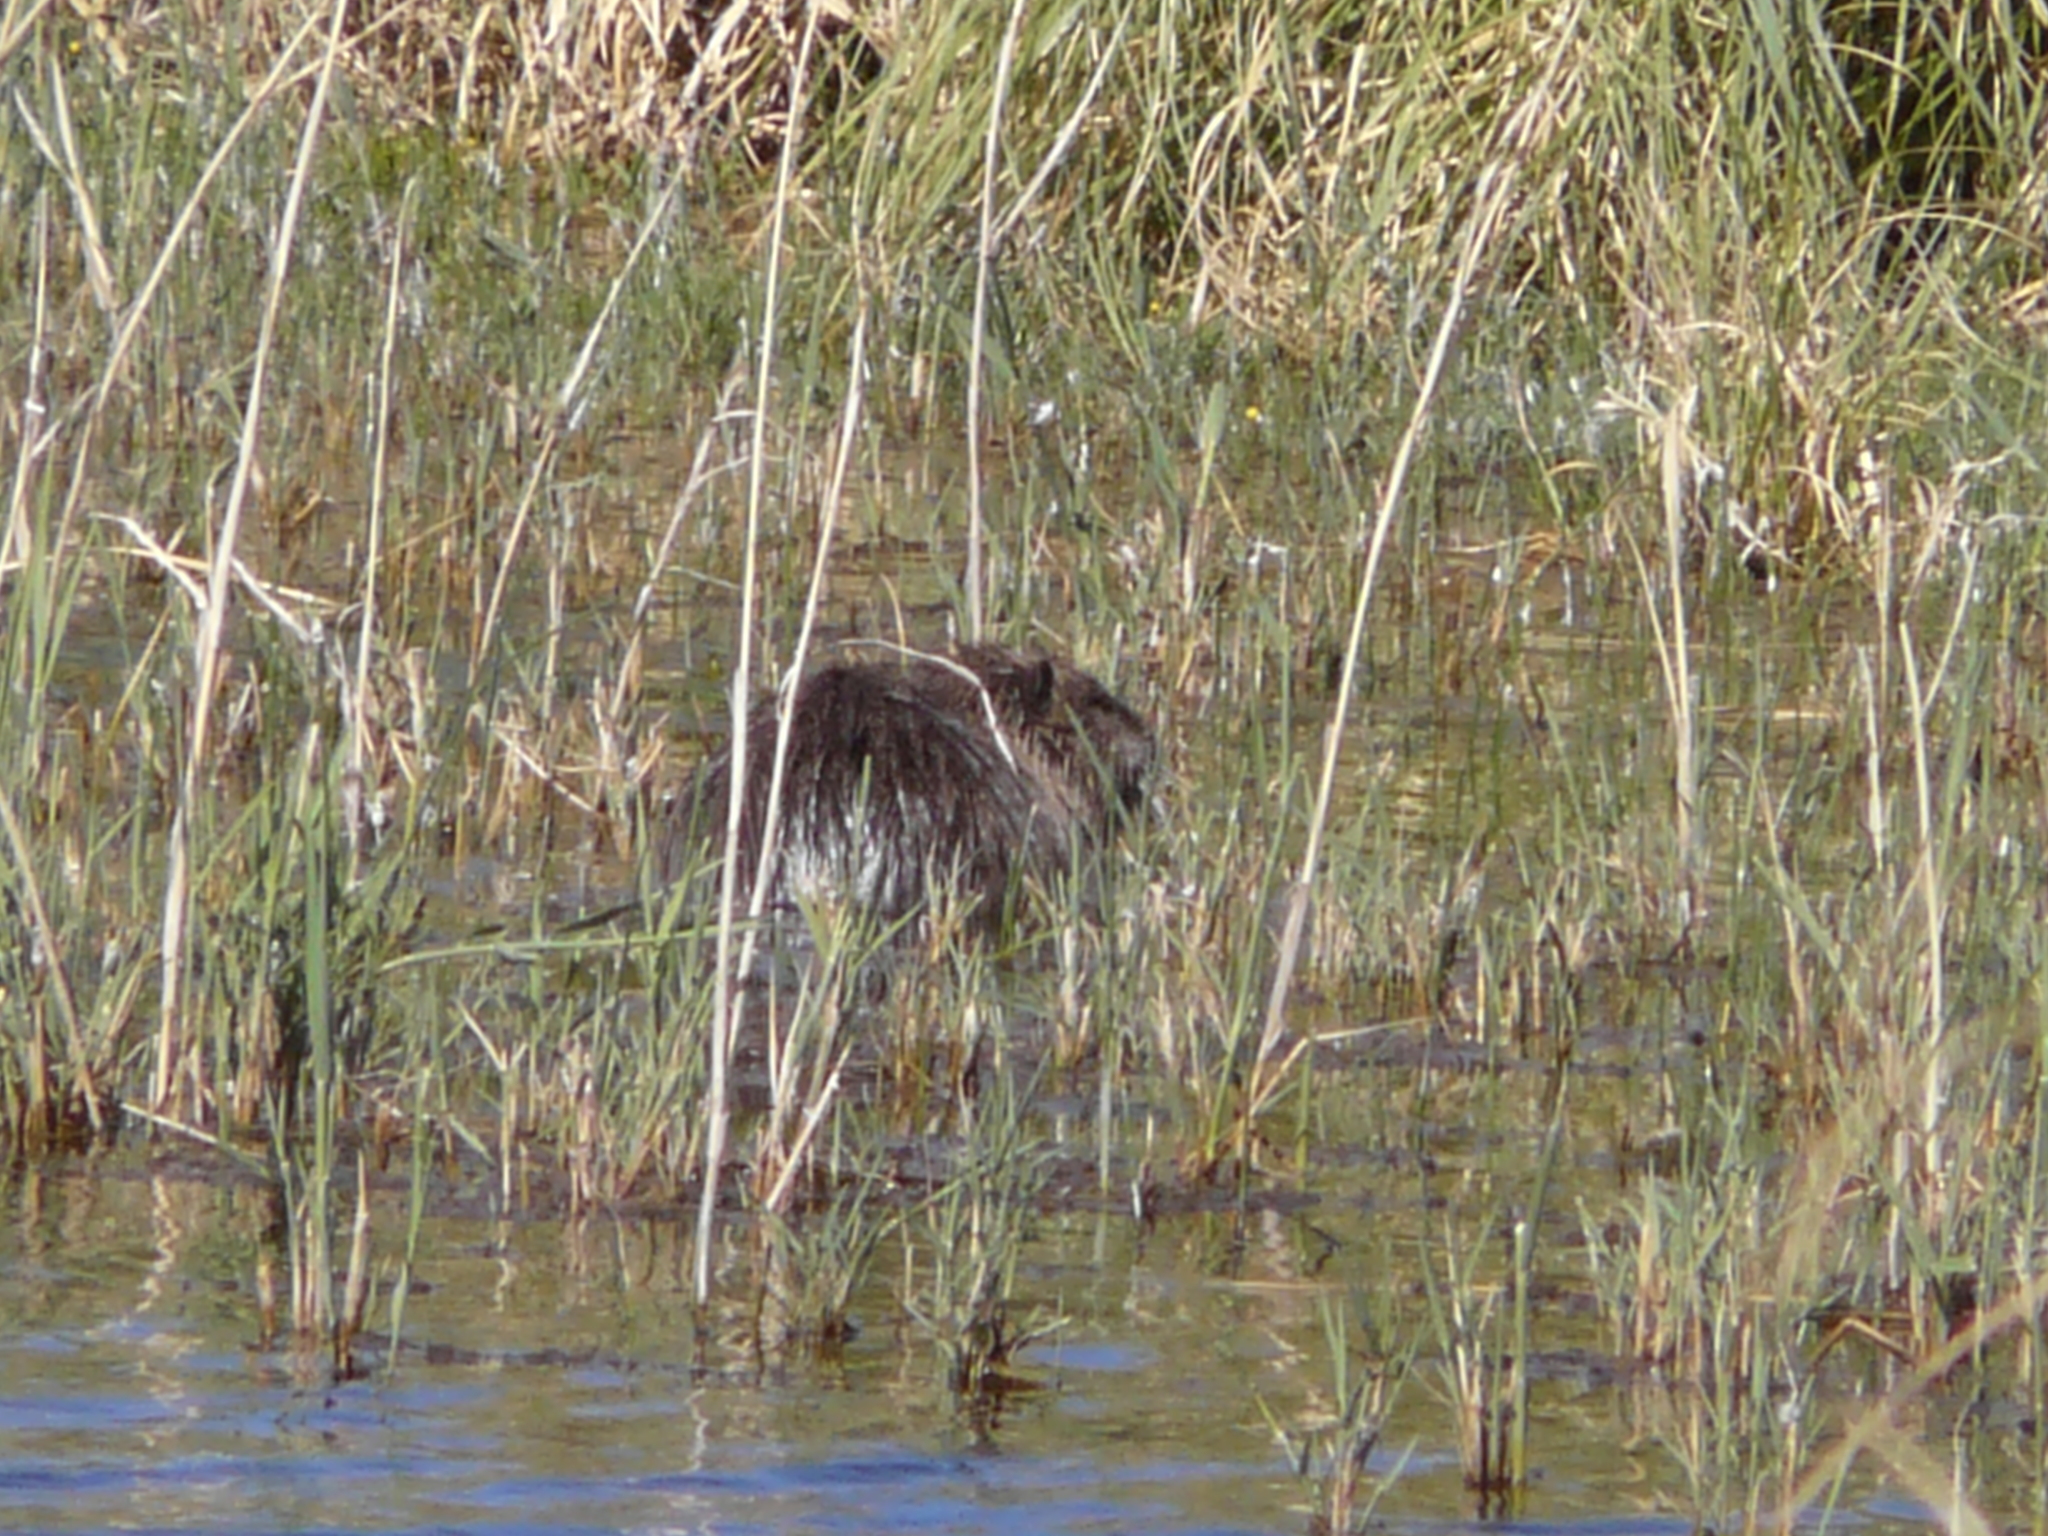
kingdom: Animalia
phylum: Chordata
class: Mammalia
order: Rodentia
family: Myocastoridae
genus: Myocastor
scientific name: Myocastor coypus
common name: Coypu
